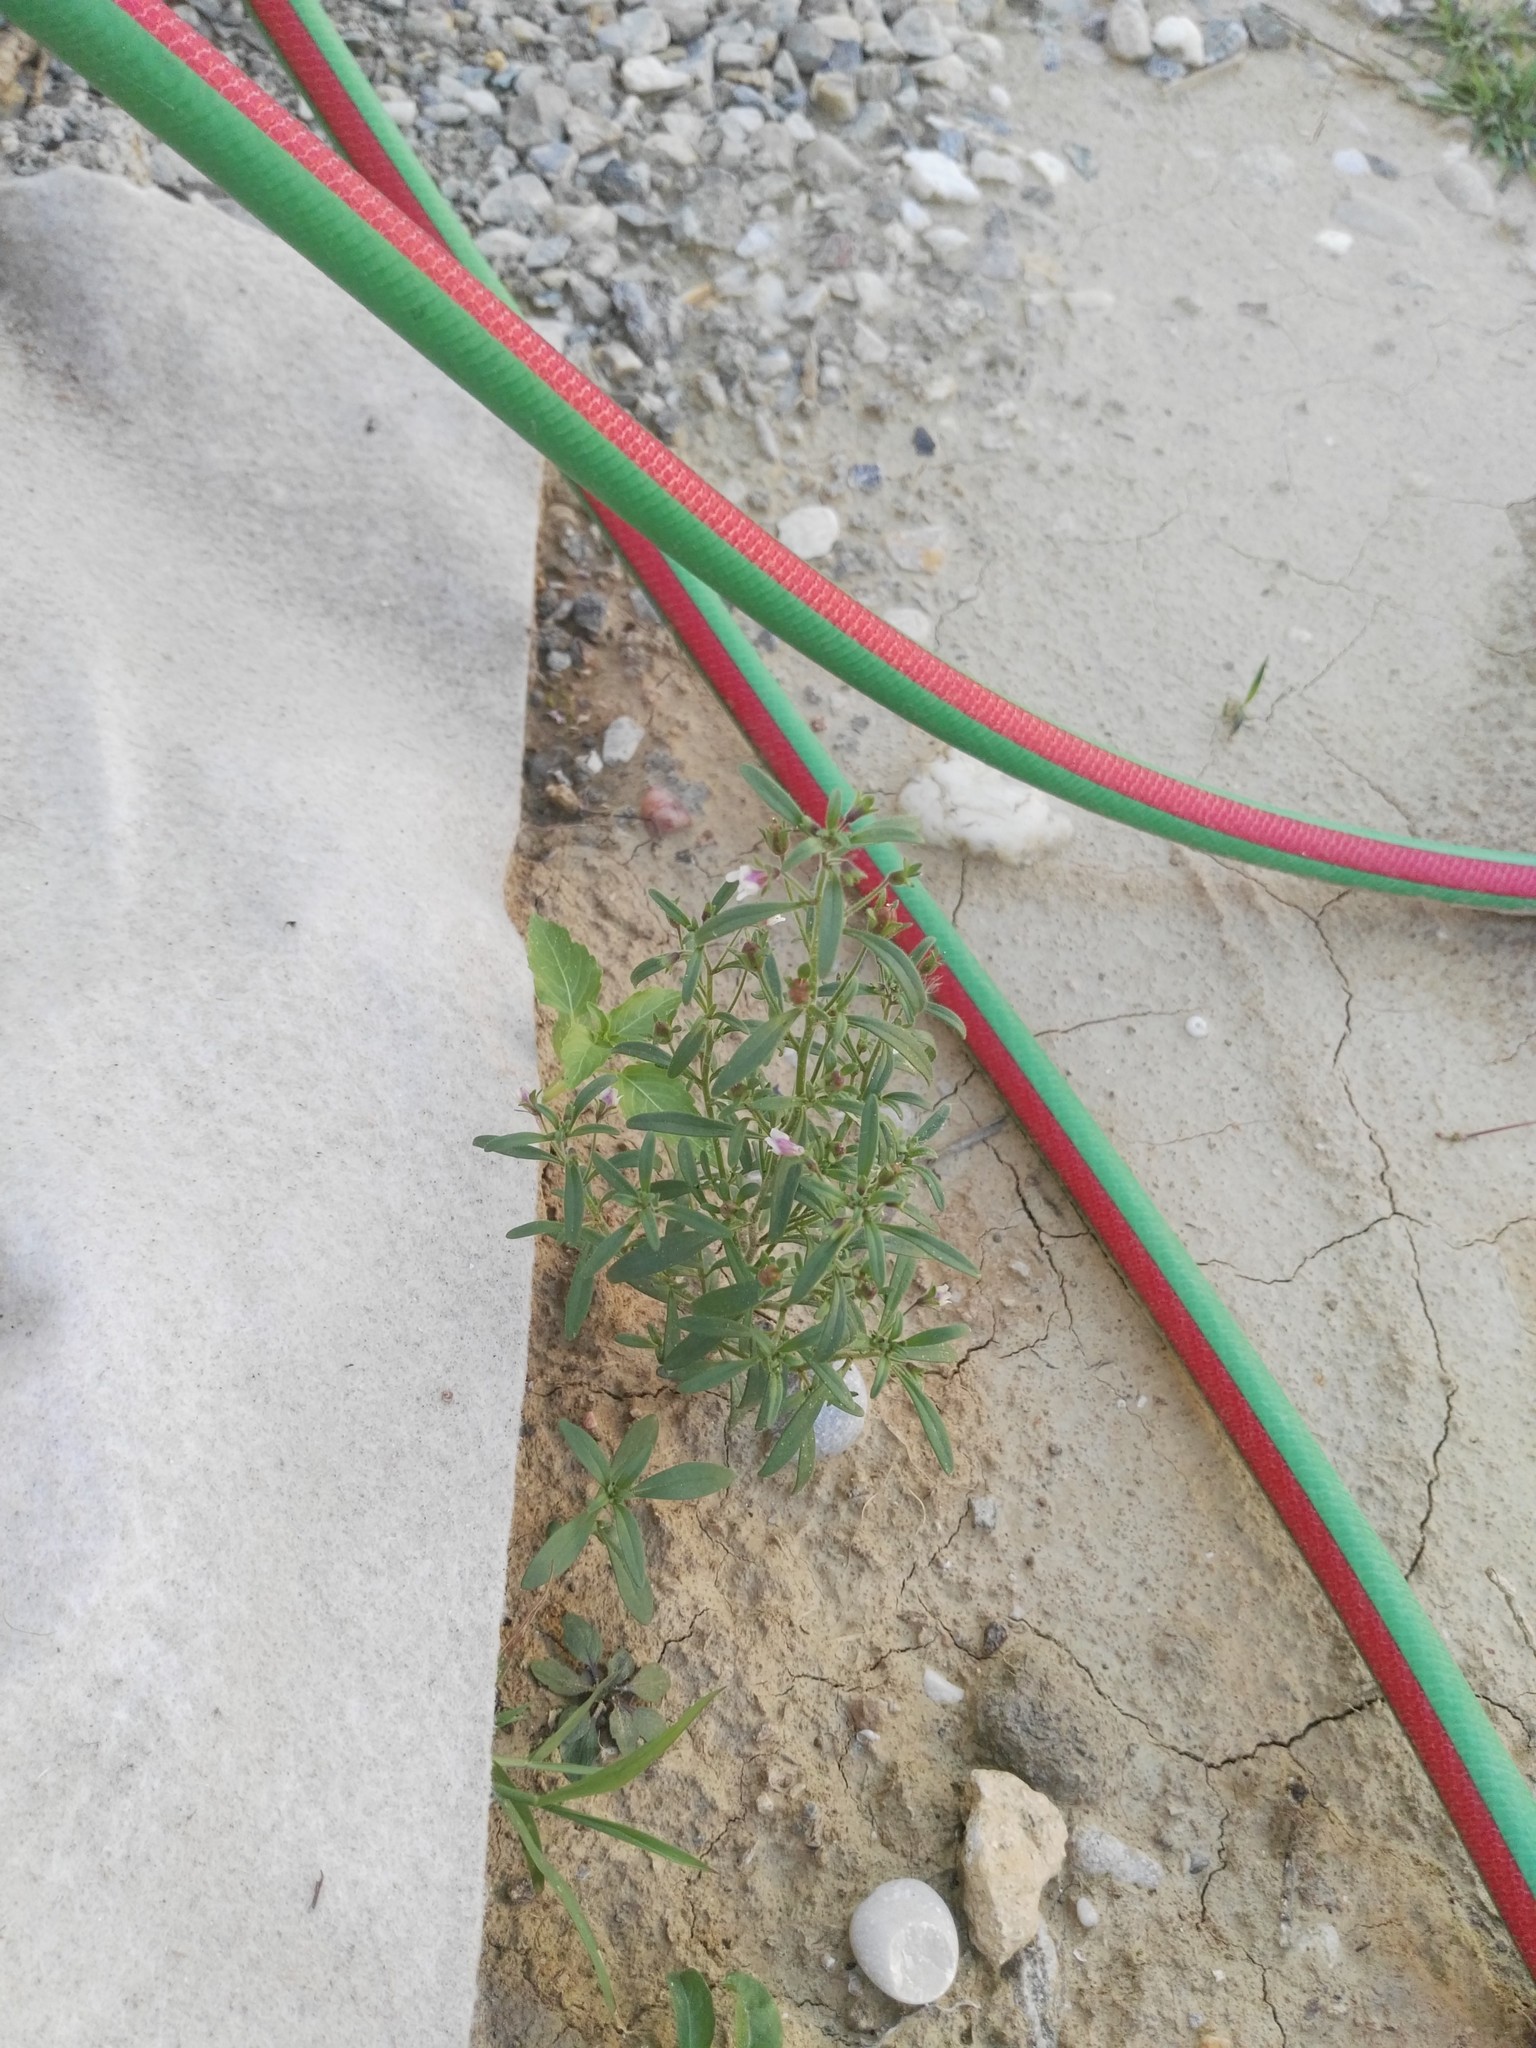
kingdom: Plantae
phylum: Tracheophyta
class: Magnoliopsida
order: Lamiales
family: Plantaginaceae
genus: Chaenorhinum
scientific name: Chaenorhinum minus
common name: Dwarf snapdragon
